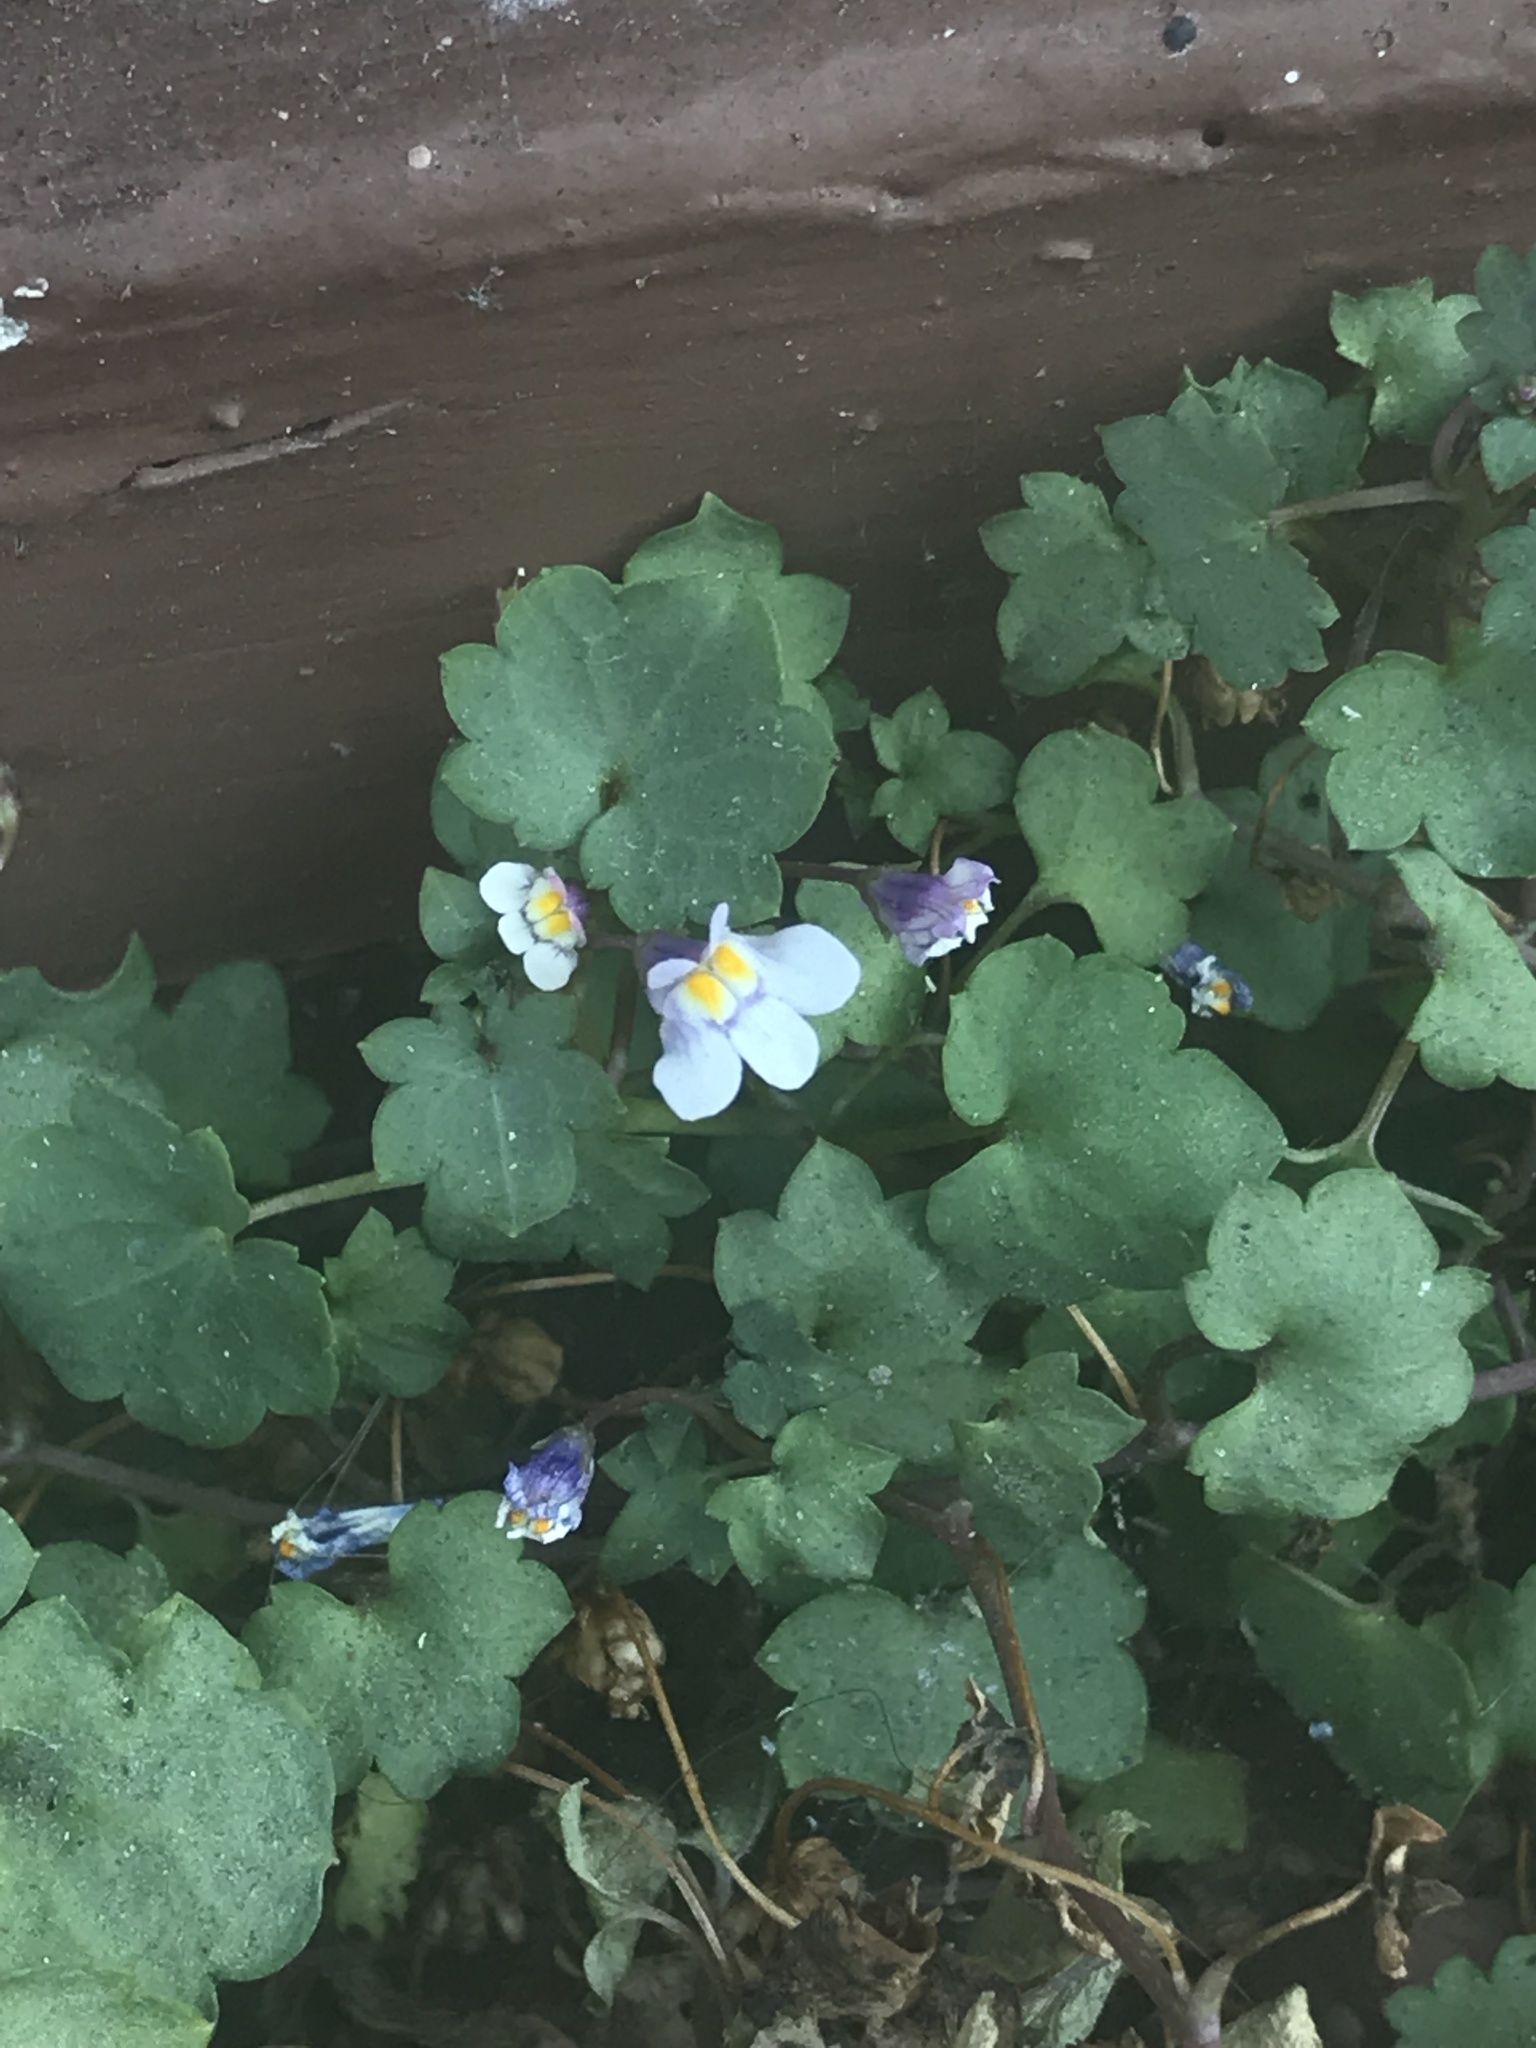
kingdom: Plantae
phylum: Tracheophyta
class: Magnoliopsida
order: Lamiales
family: Plantaginaceae
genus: Cymbalaria
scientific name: Cymbalaria muralis
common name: Ivy-leaved toadflax
